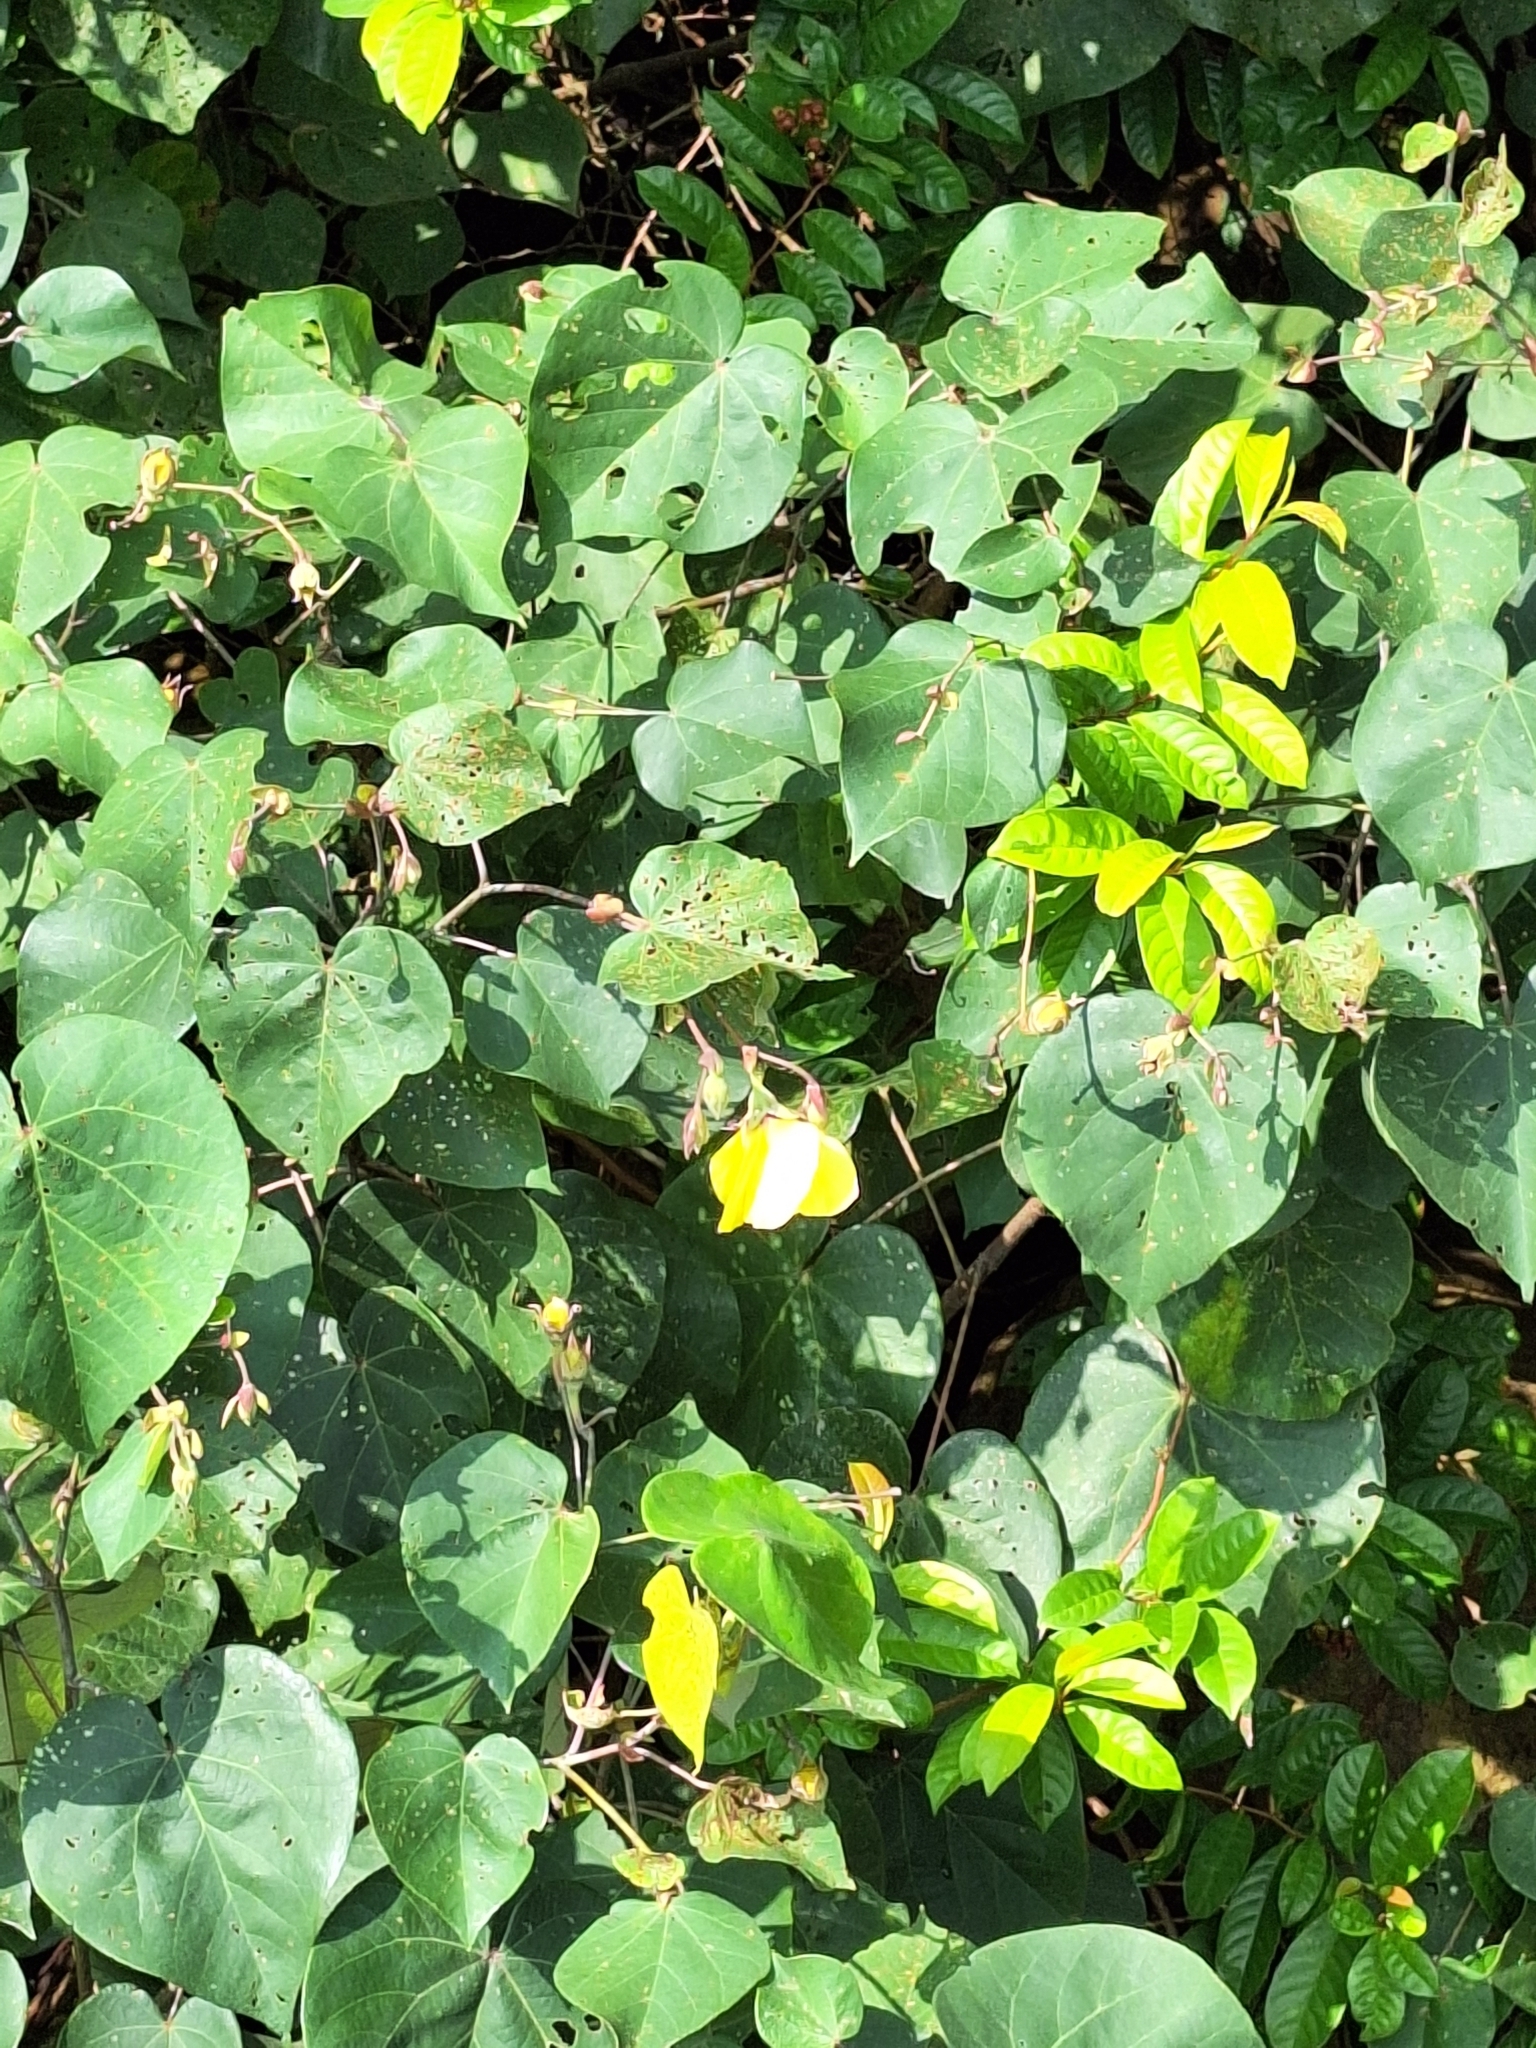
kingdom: Plantae
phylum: Tracheophyta
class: Magnoliopsida
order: Malvales
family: Malvaceae
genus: Talipariti
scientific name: Talipariti tiliaceum
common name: Sea hibiscus
